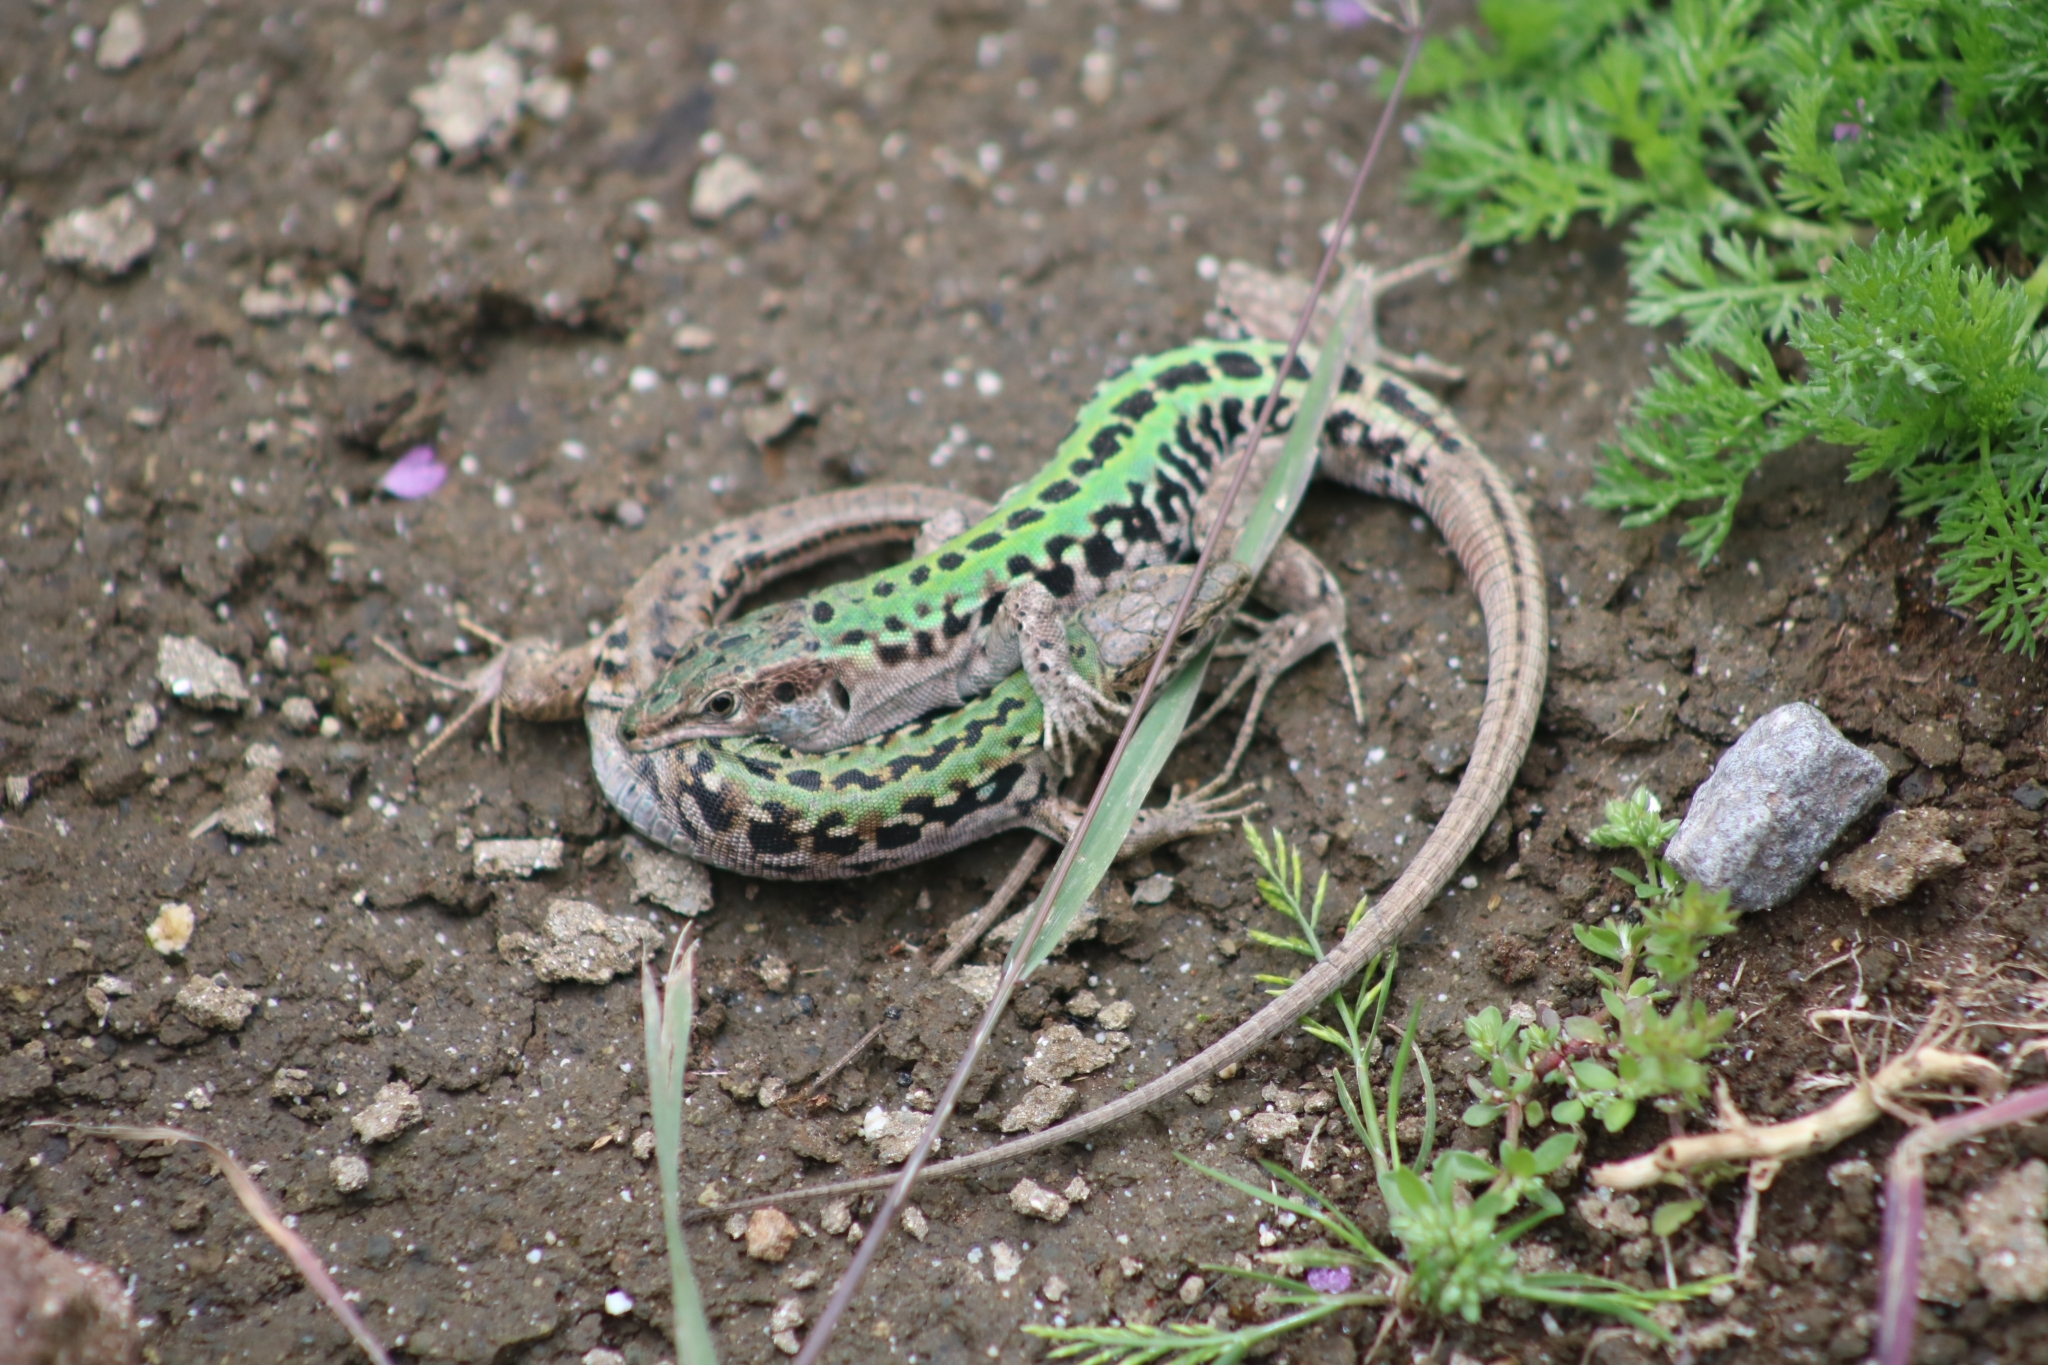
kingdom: Animalia
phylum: Chordata
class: Squamata
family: Lacertidae
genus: Podarcis
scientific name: Podarcis siculus
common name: Italian wall lizard
